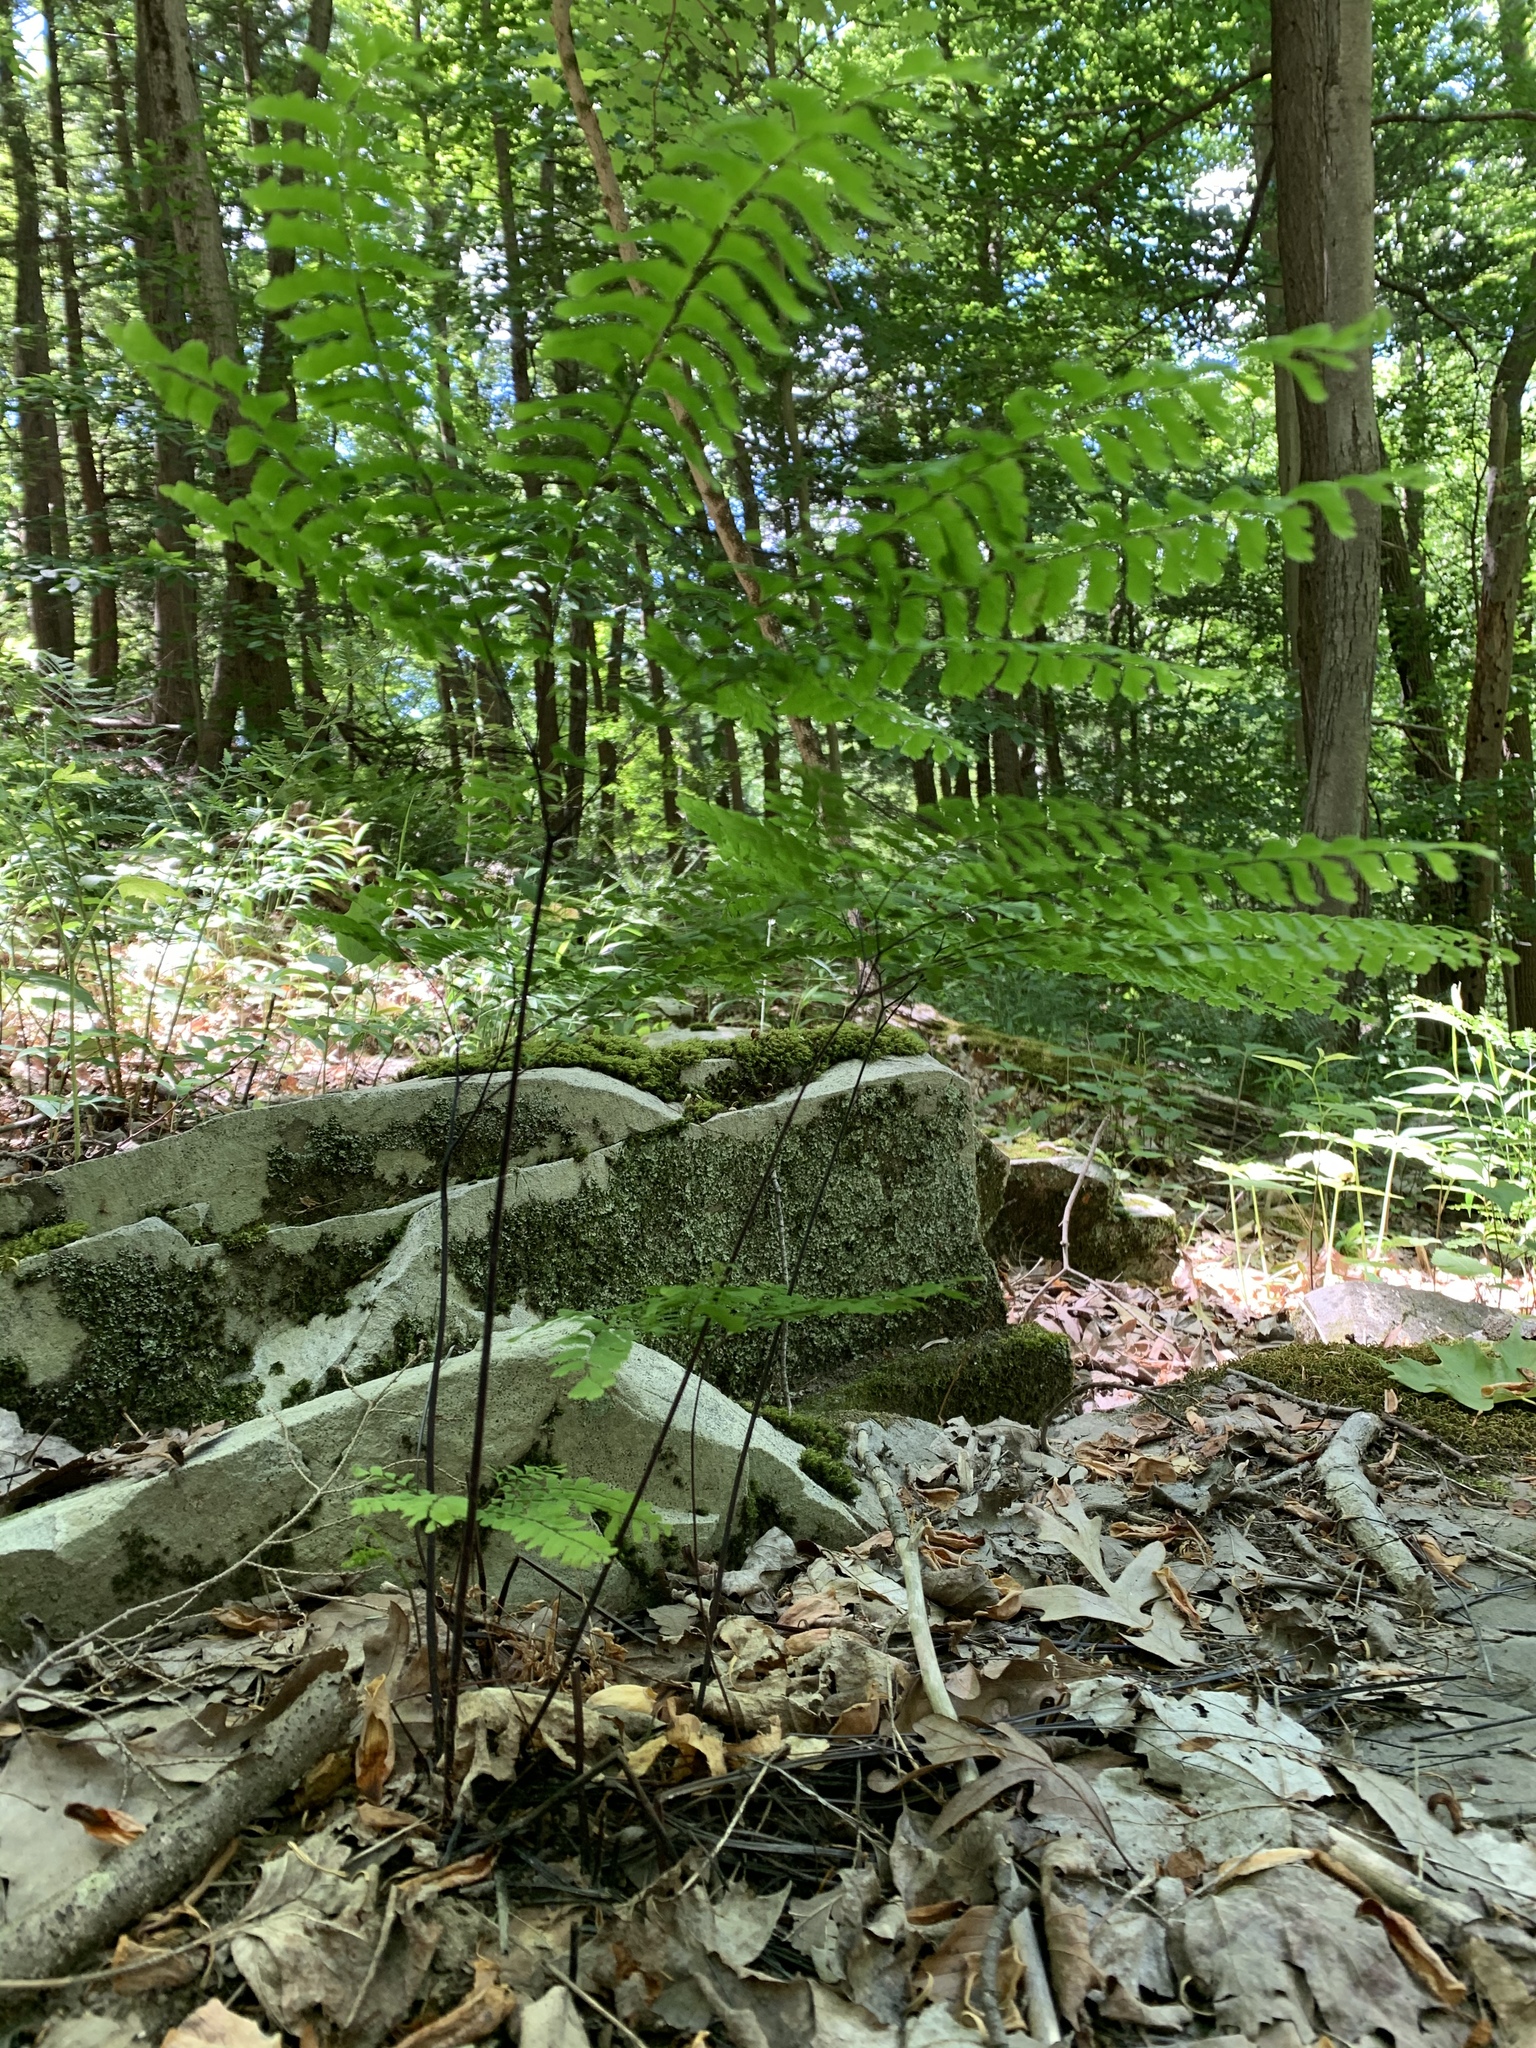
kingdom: Plantae
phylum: Tracheophyta
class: Polypodiopsida
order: Polypodiales
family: Pteridaceae
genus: Adiantum
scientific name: Adiantum pedatum
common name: Five-finger fern
